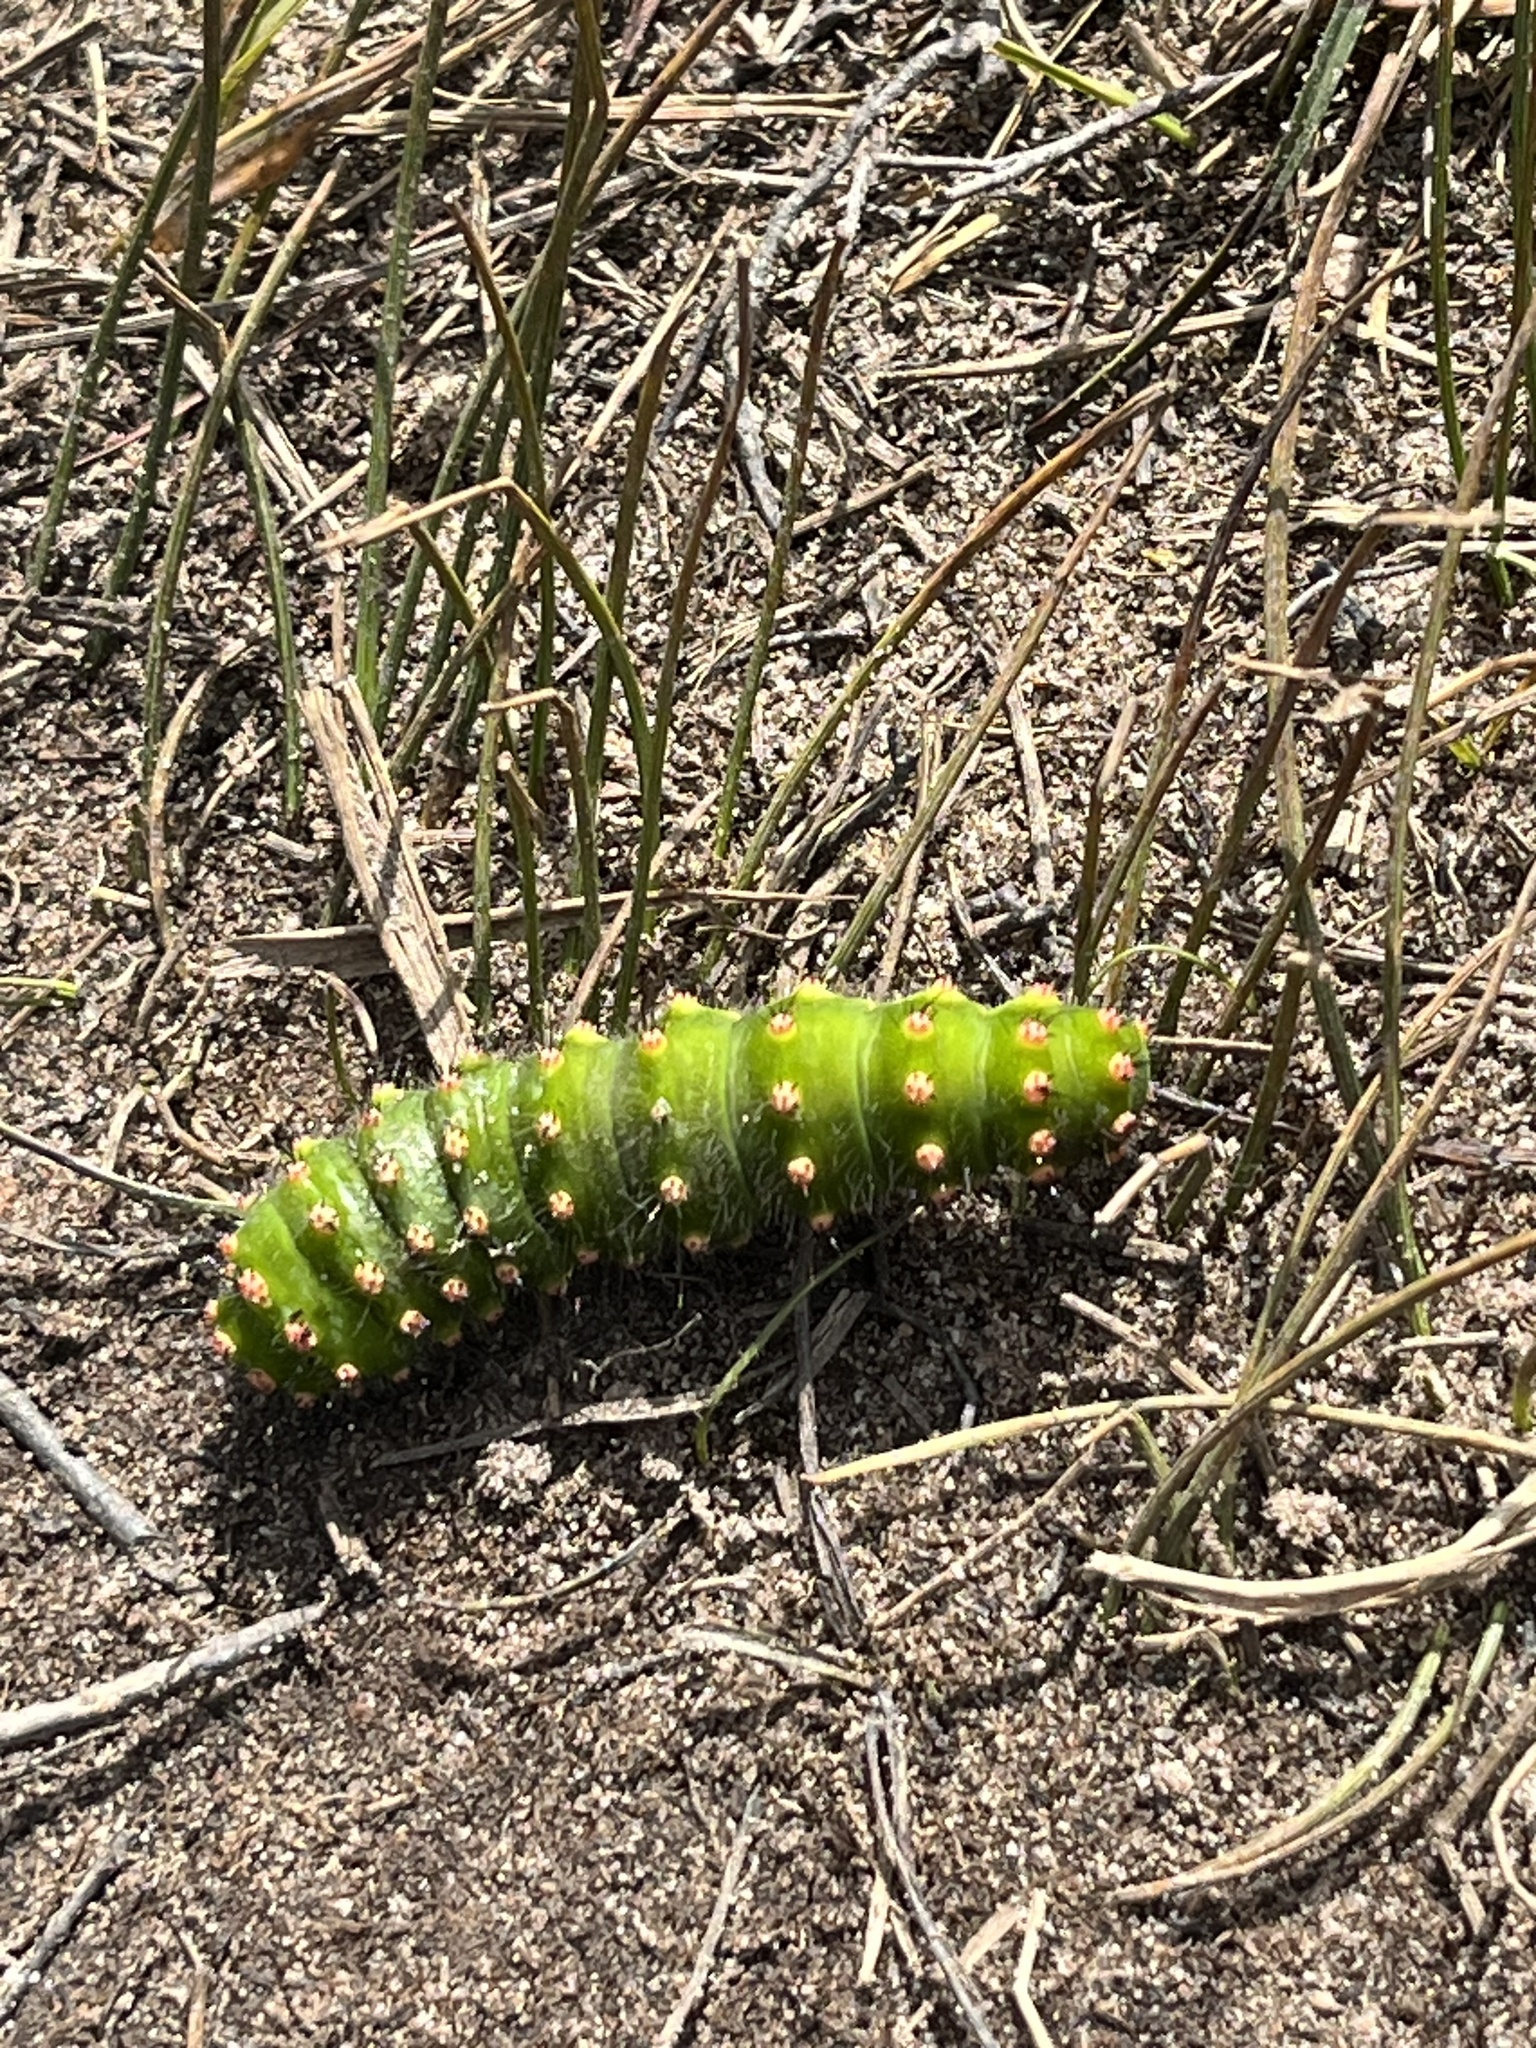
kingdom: Animalia
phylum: Arthropoda
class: Insecta
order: Lepidoptera
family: Saturniidae
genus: Saturnia
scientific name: Saturnia pavonia
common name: Emperor moth
